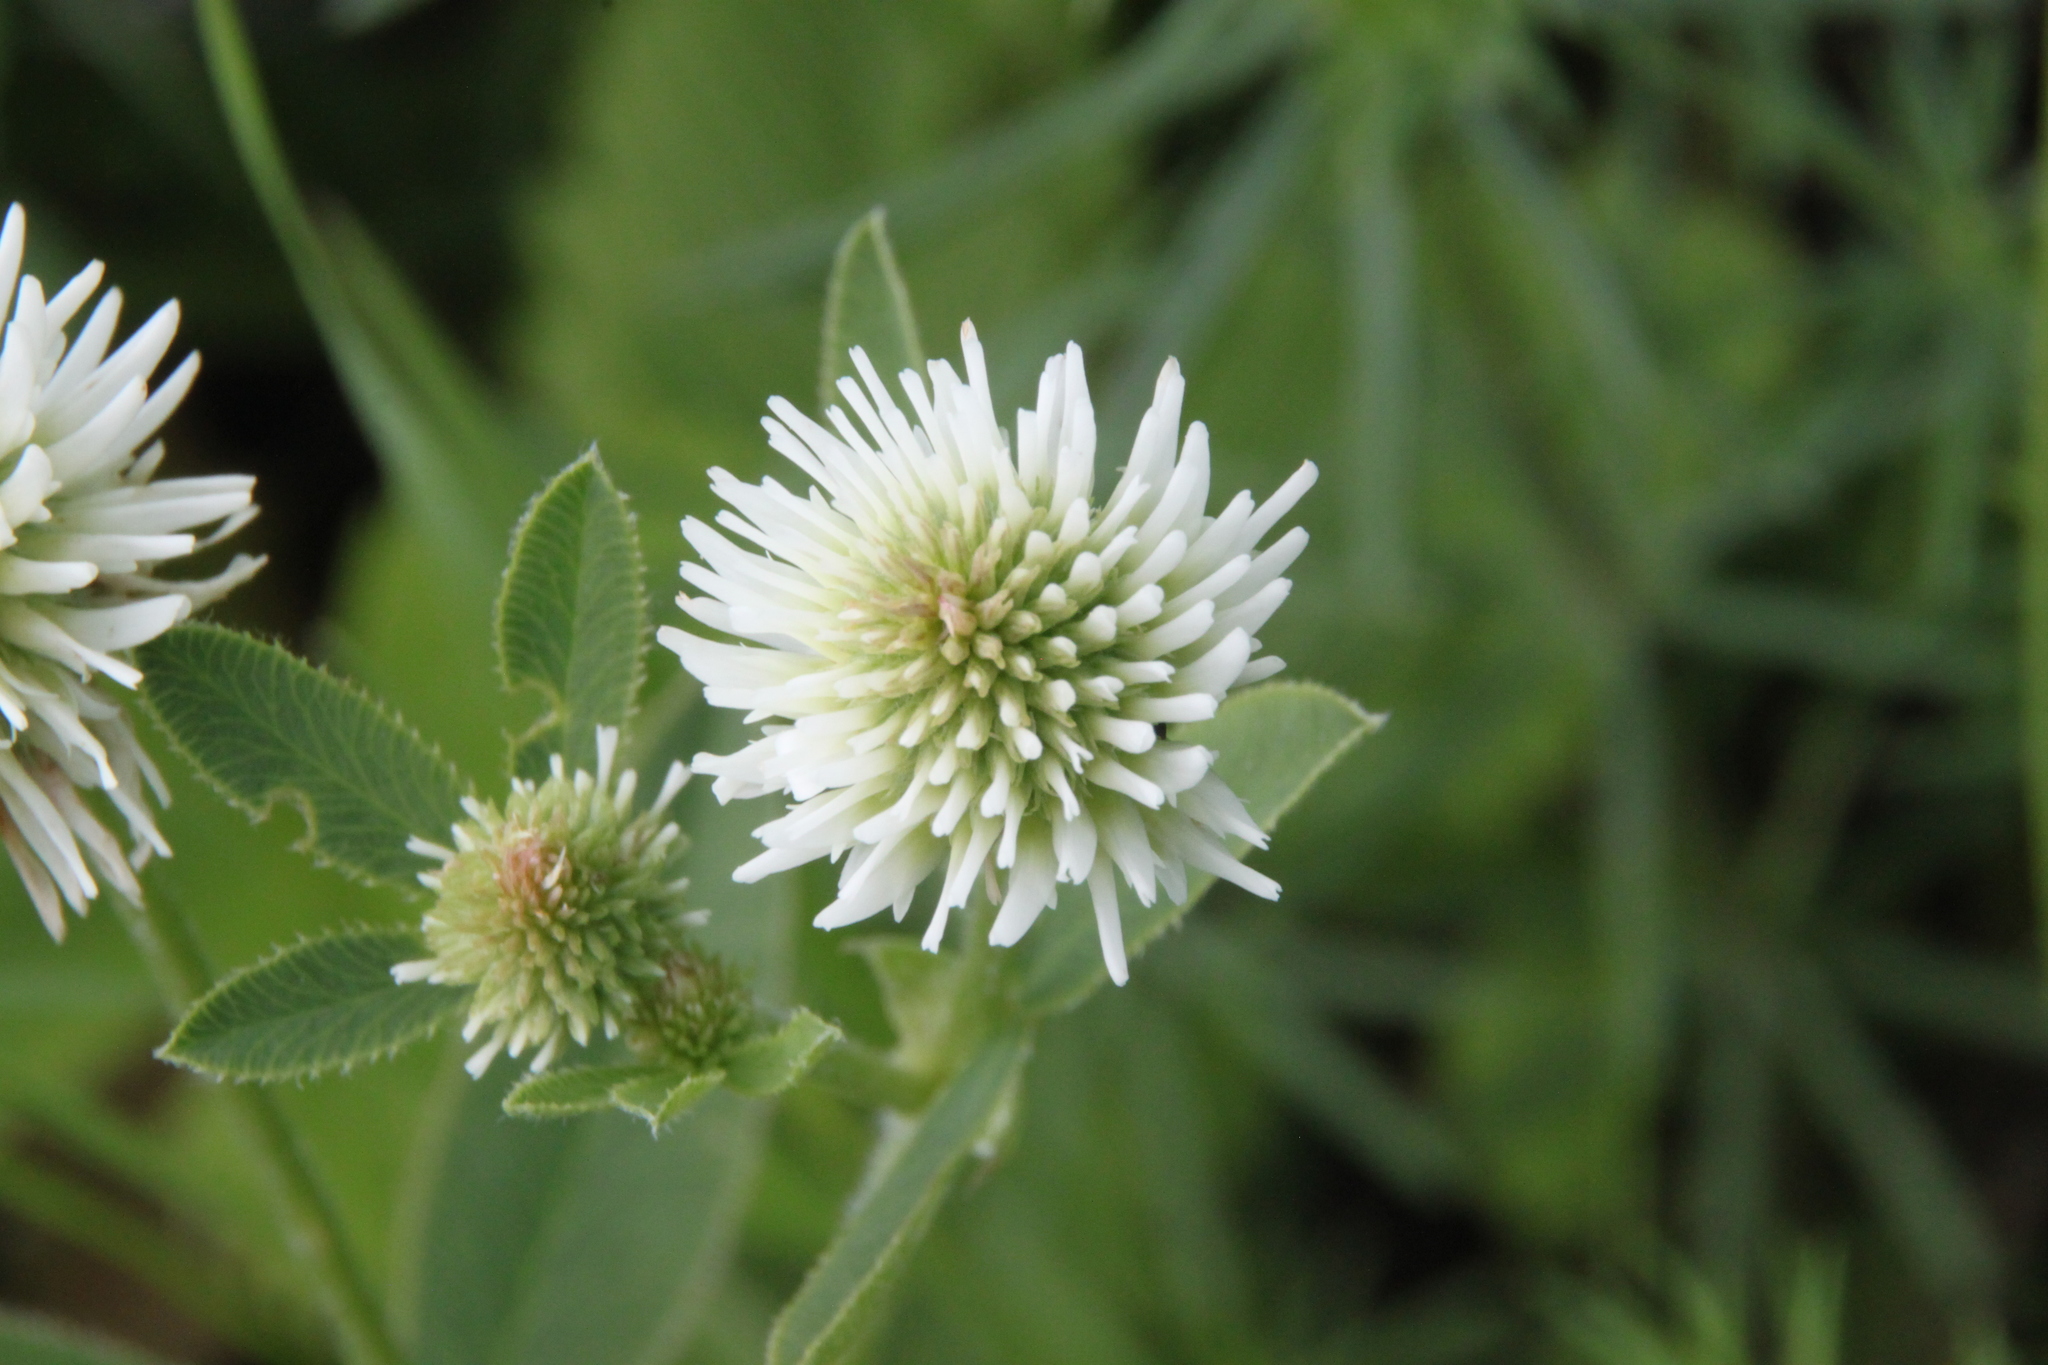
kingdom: Plantae
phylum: Tracheophyta
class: Magnoliopsida
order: Fabales
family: Fabaceae
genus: Trifolium
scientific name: Trifolium montanum
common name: Mountain clover
